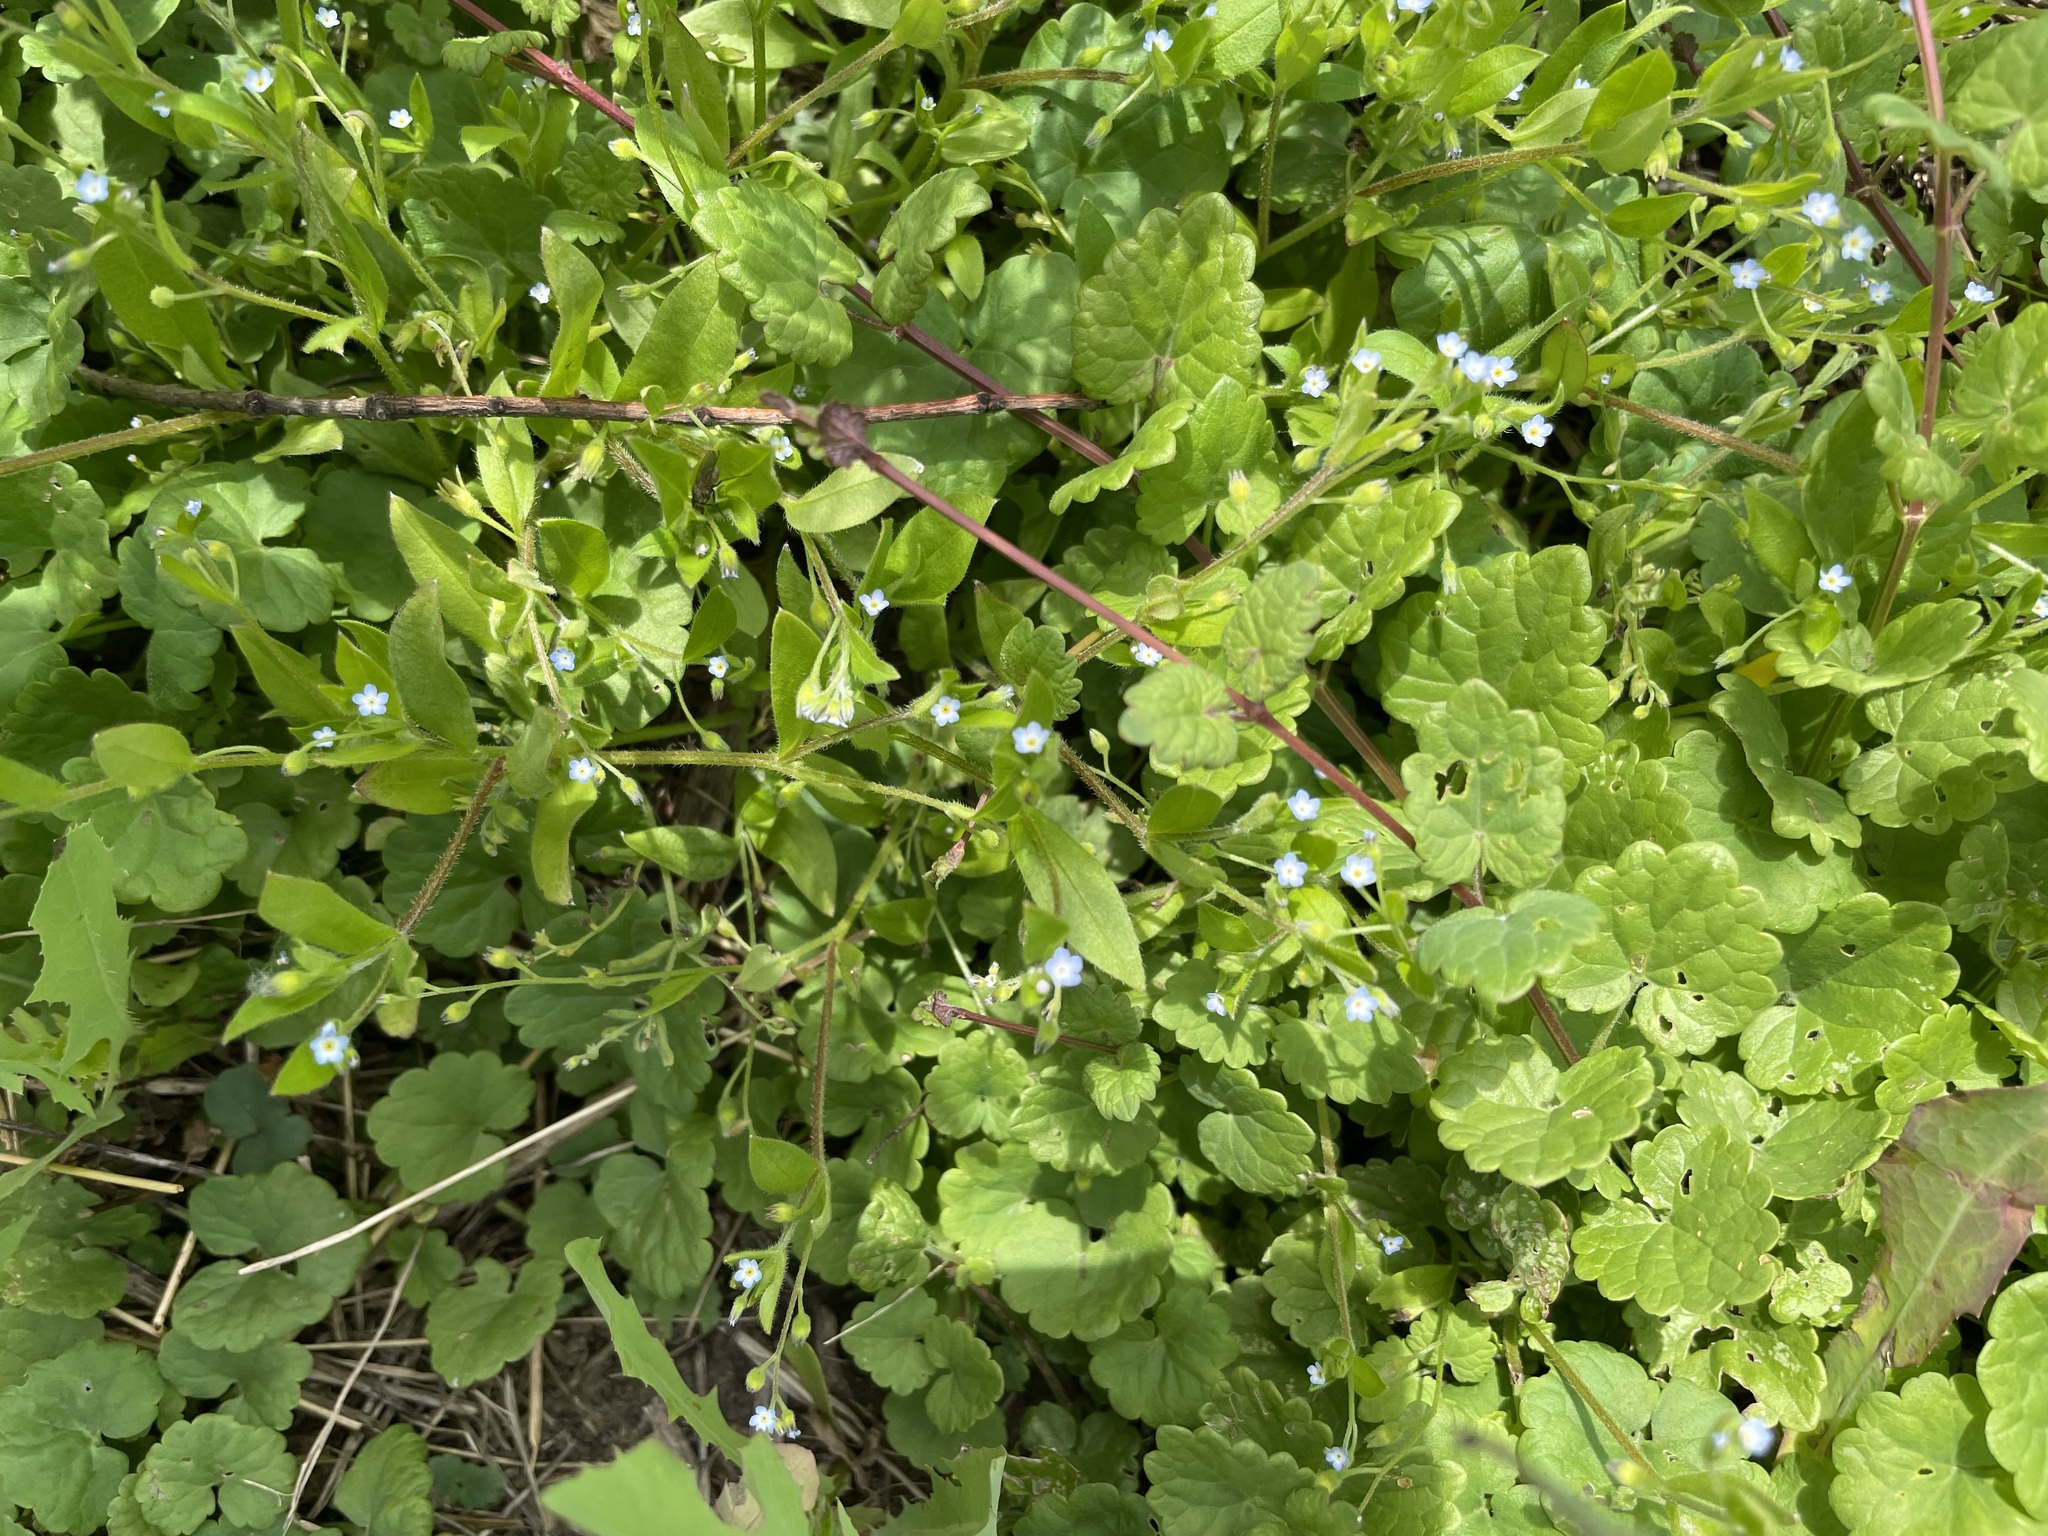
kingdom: Plantae
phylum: Tracheophyta
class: Magnoliopsida
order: Boraginales
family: Boraginaceae
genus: Myosotis
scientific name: Myosotis sparsiflora
